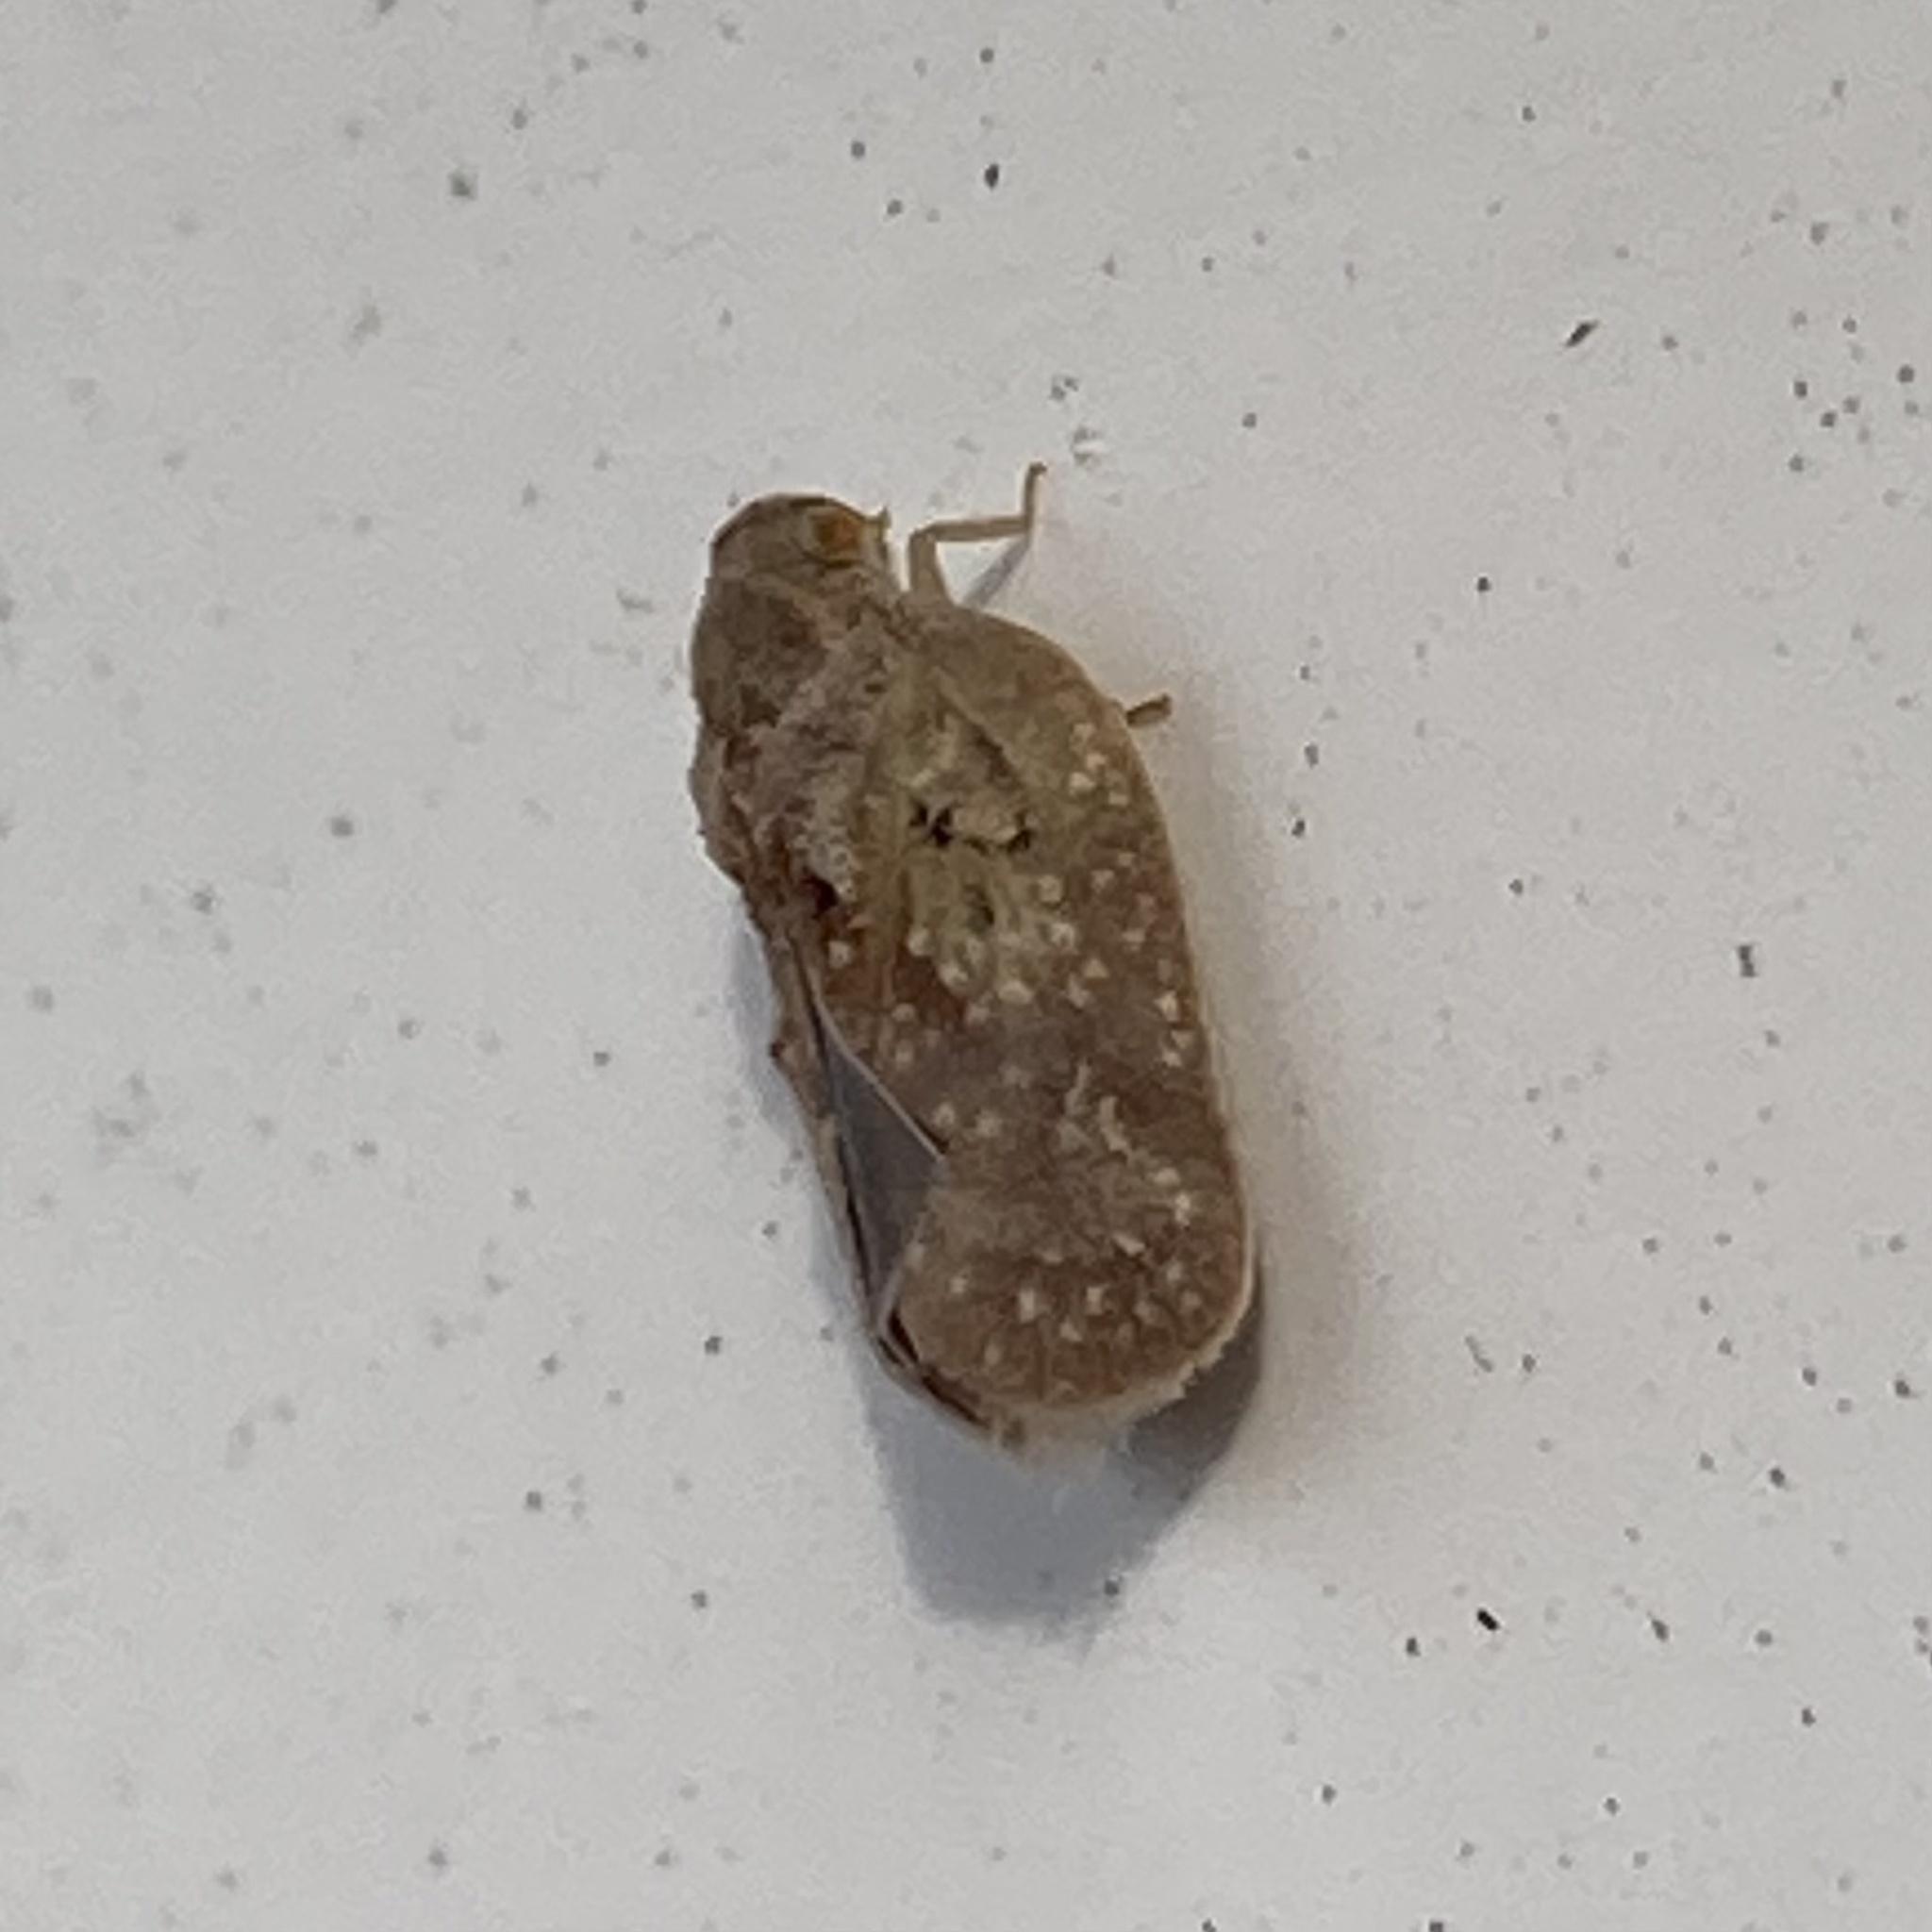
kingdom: Animalia
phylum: Arthropoda
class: Insecta
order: Hemiptera
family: Flatidae
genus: Melormenis
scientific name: Melormenis basalis
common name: Puerto rican planthopper
